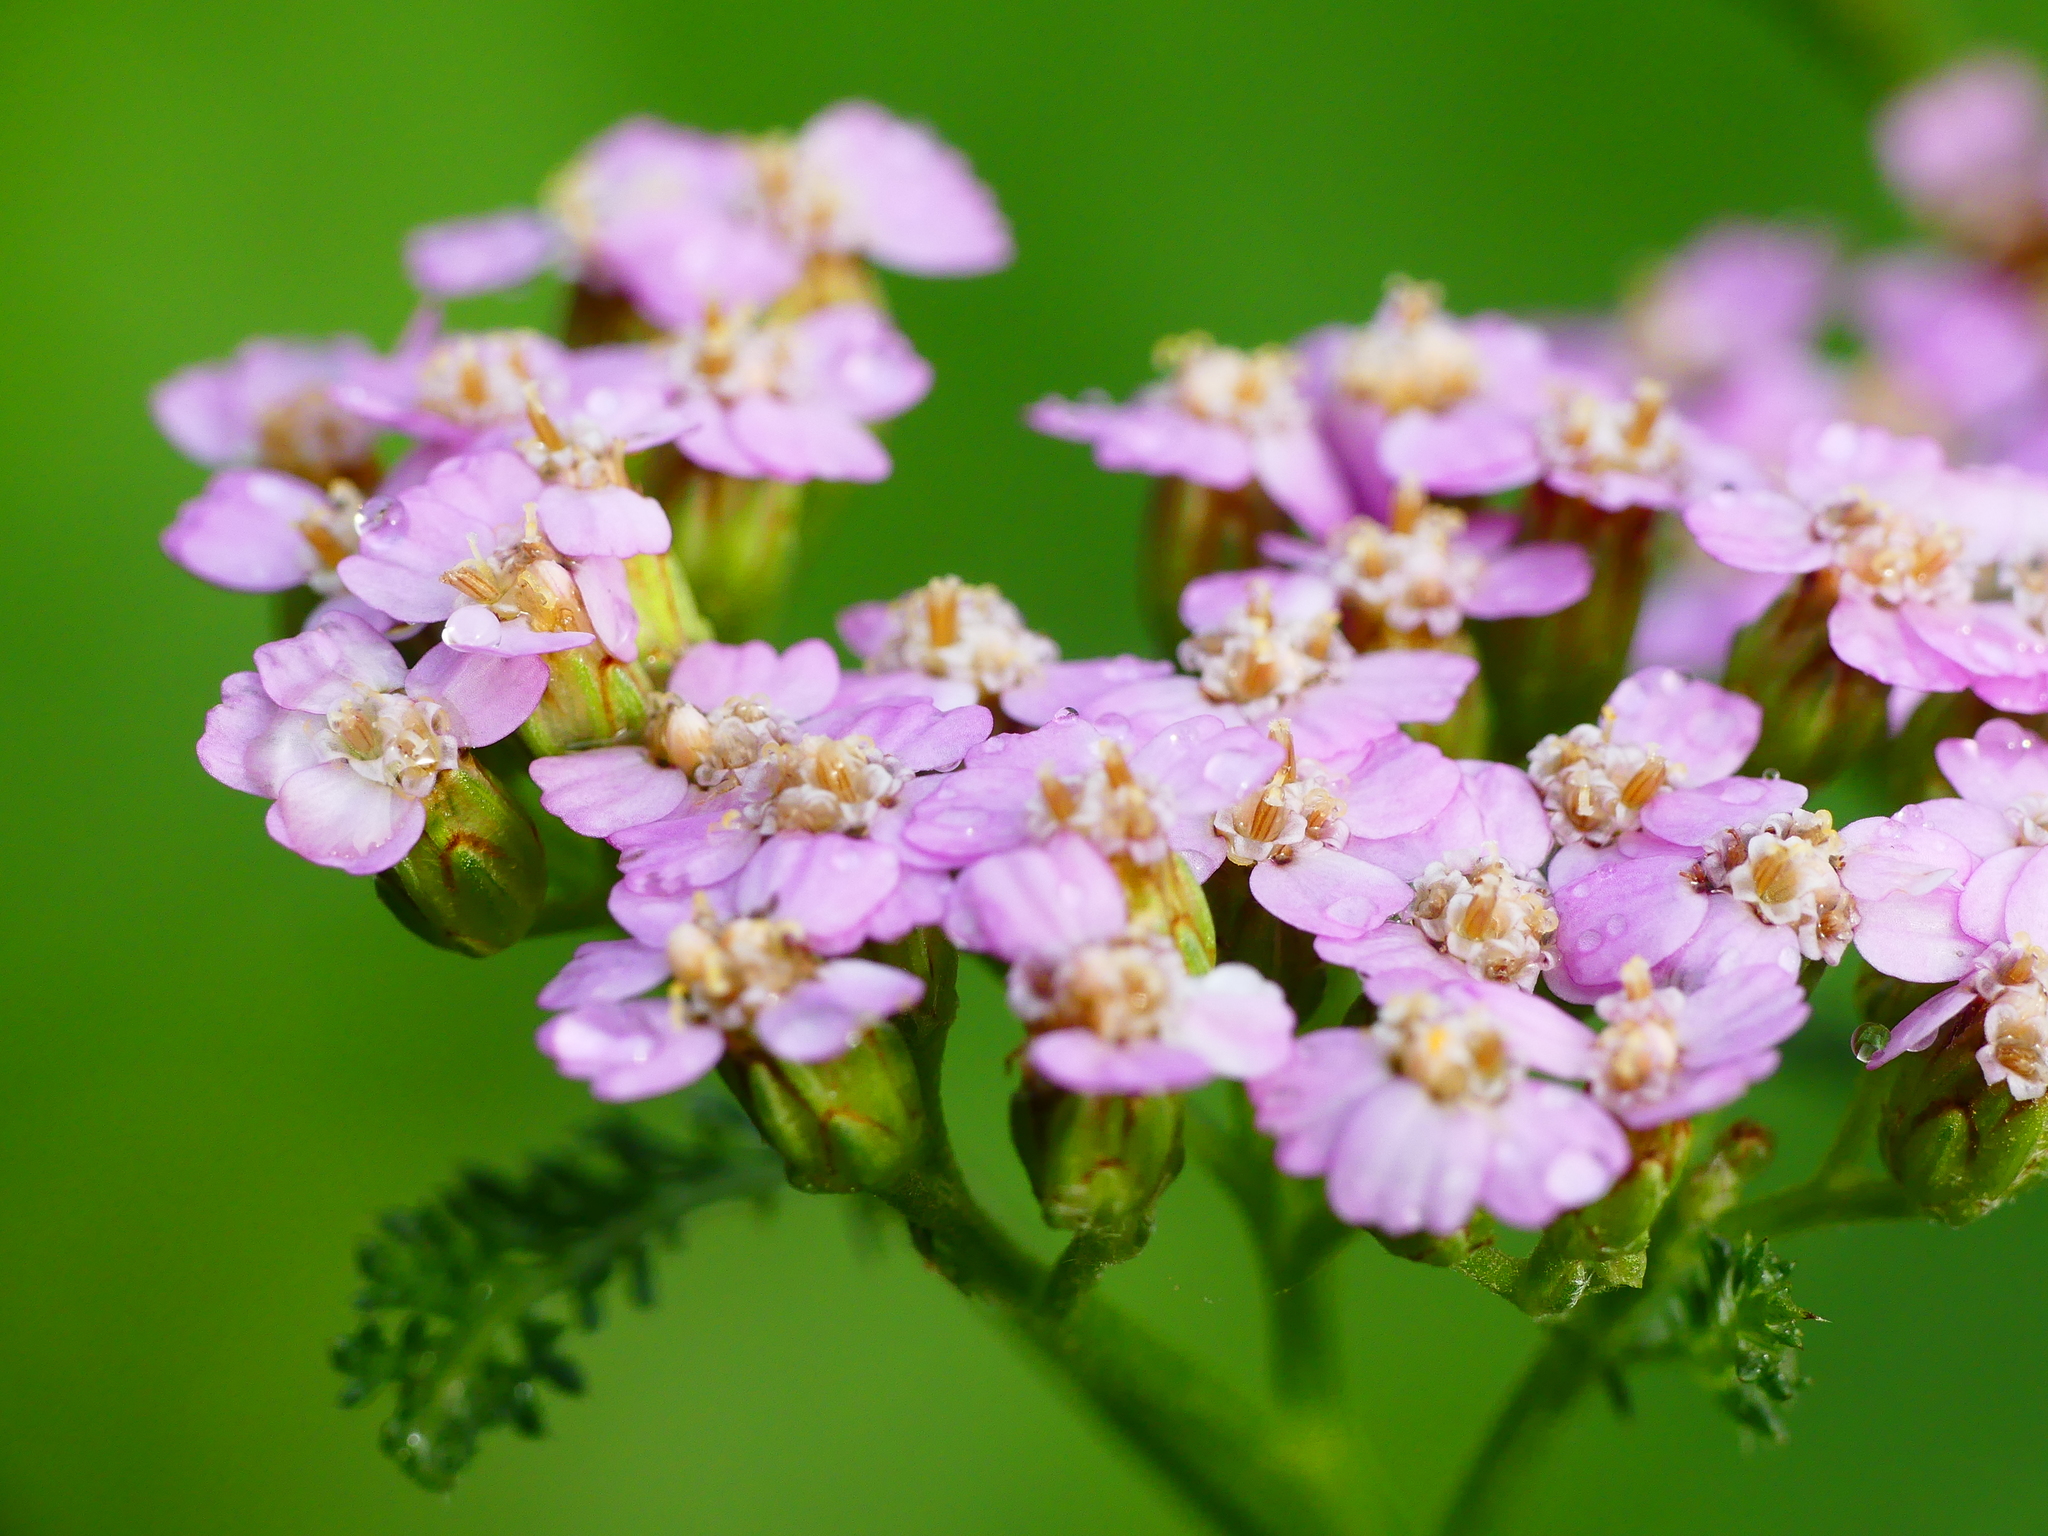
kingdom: Plantae
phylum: Tracheophyta
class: Magnoliopsida
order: Asterales
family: Asteraceae
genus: Achillea
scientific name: Achillea millefolium
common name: Yarrow
